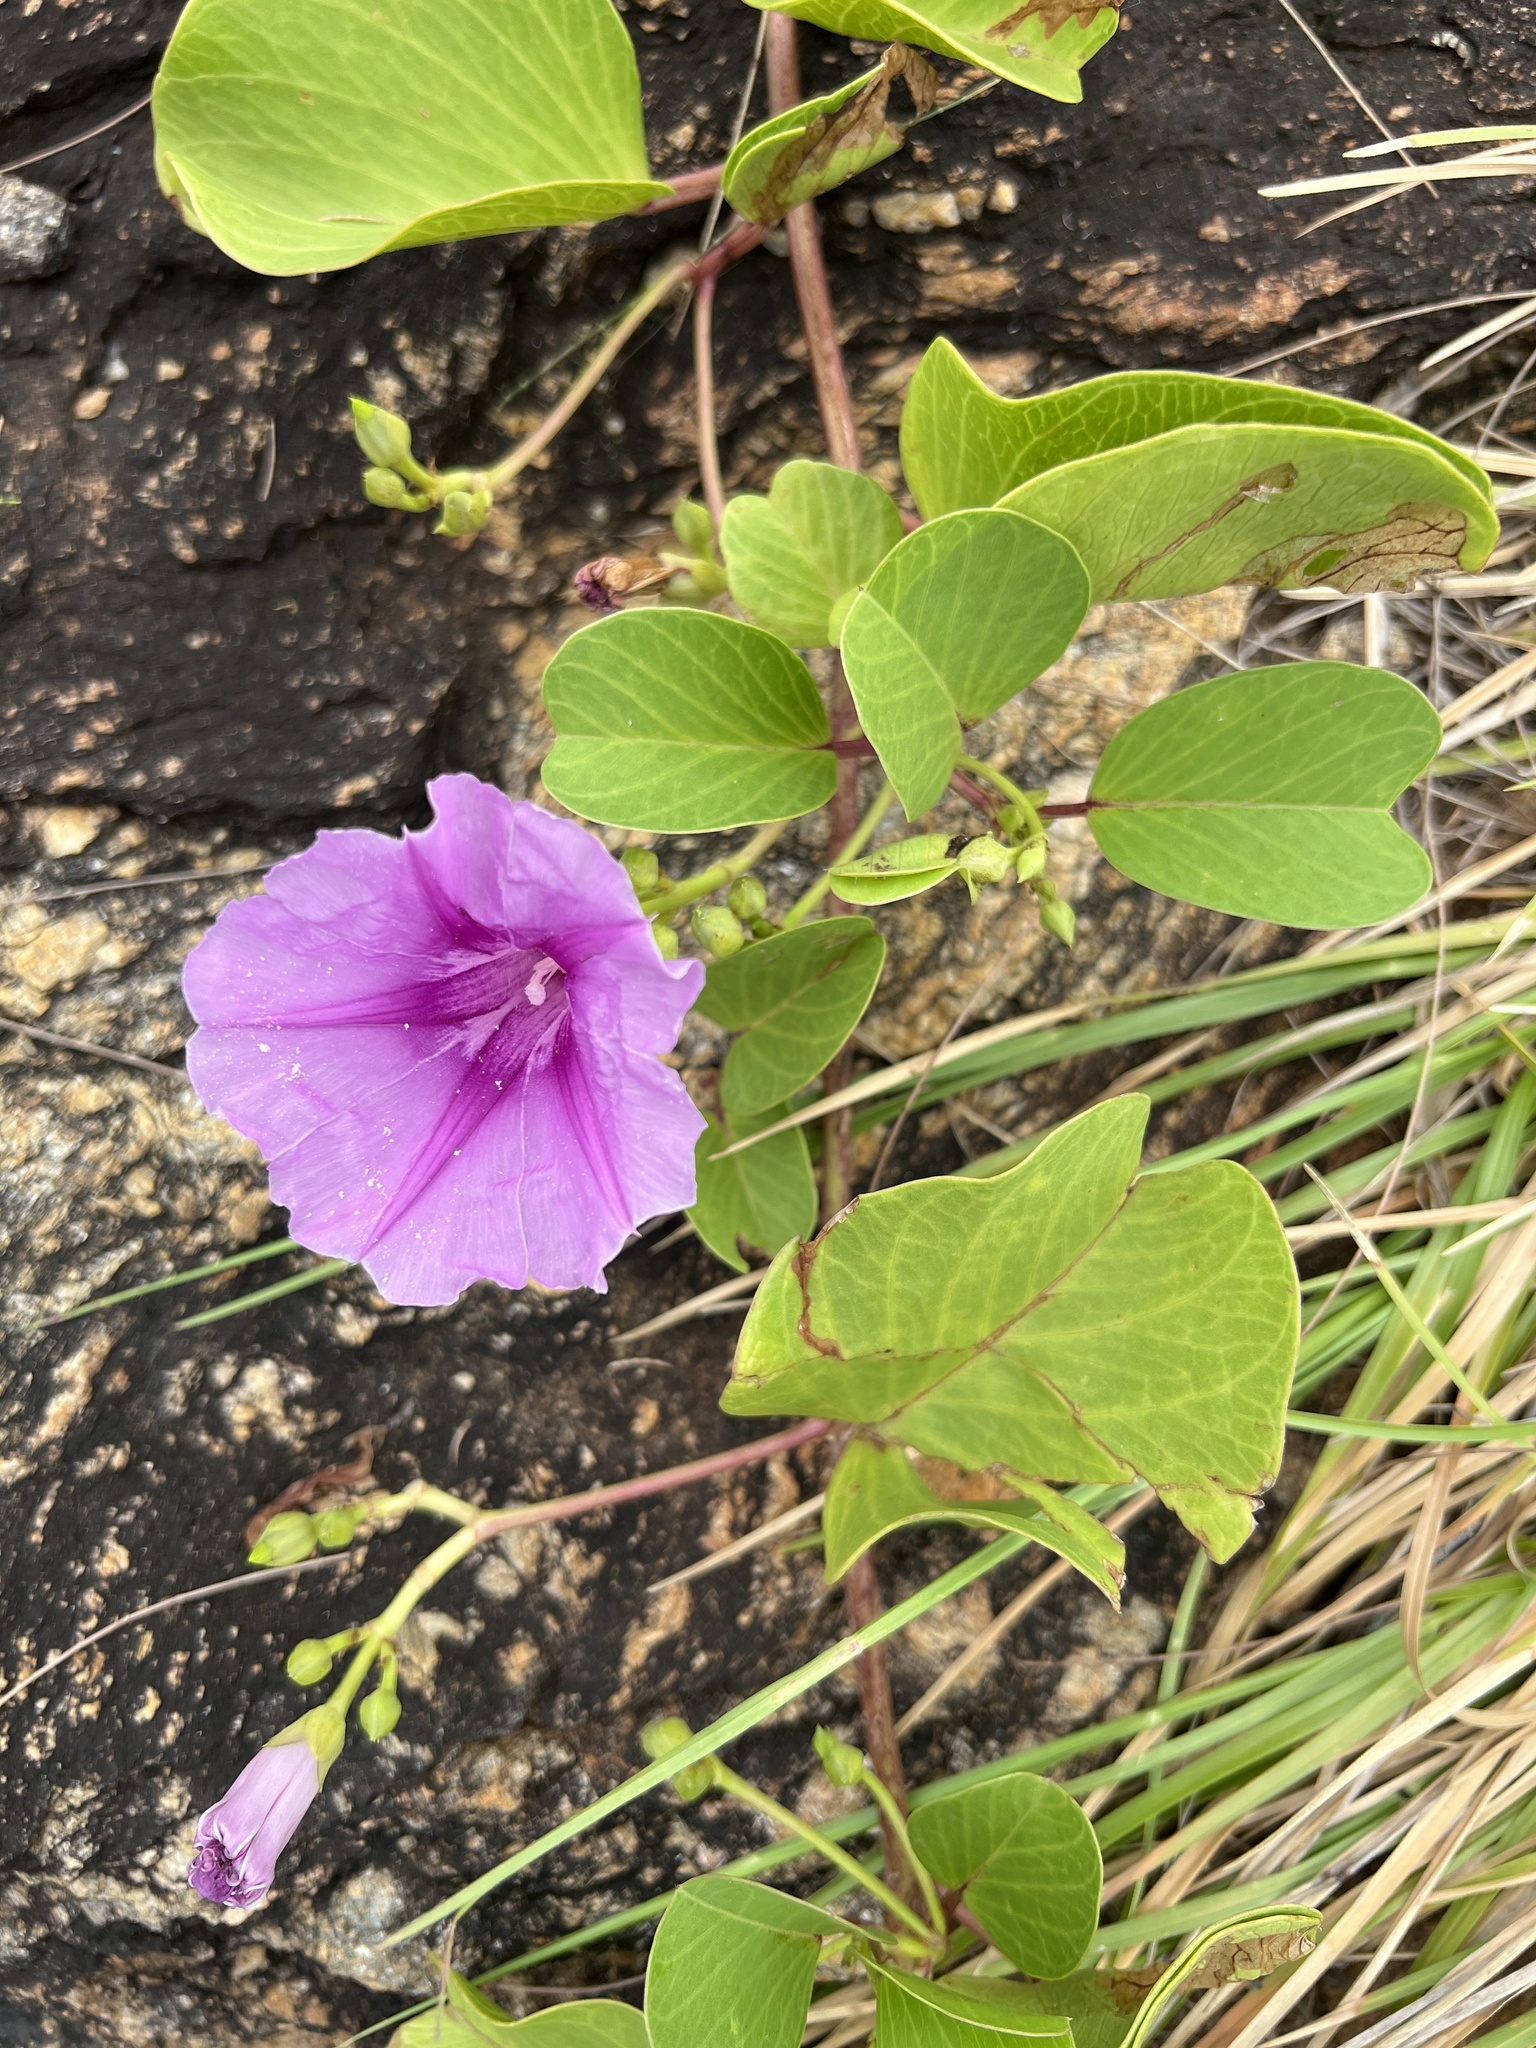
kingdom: Plantae
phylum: Tracheophyta
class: Magnoliopsida
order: Solanales
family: Convolvulaceae
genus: Ipomoea
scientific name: Ipomoea pes-caprae
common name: Beach morning glory
